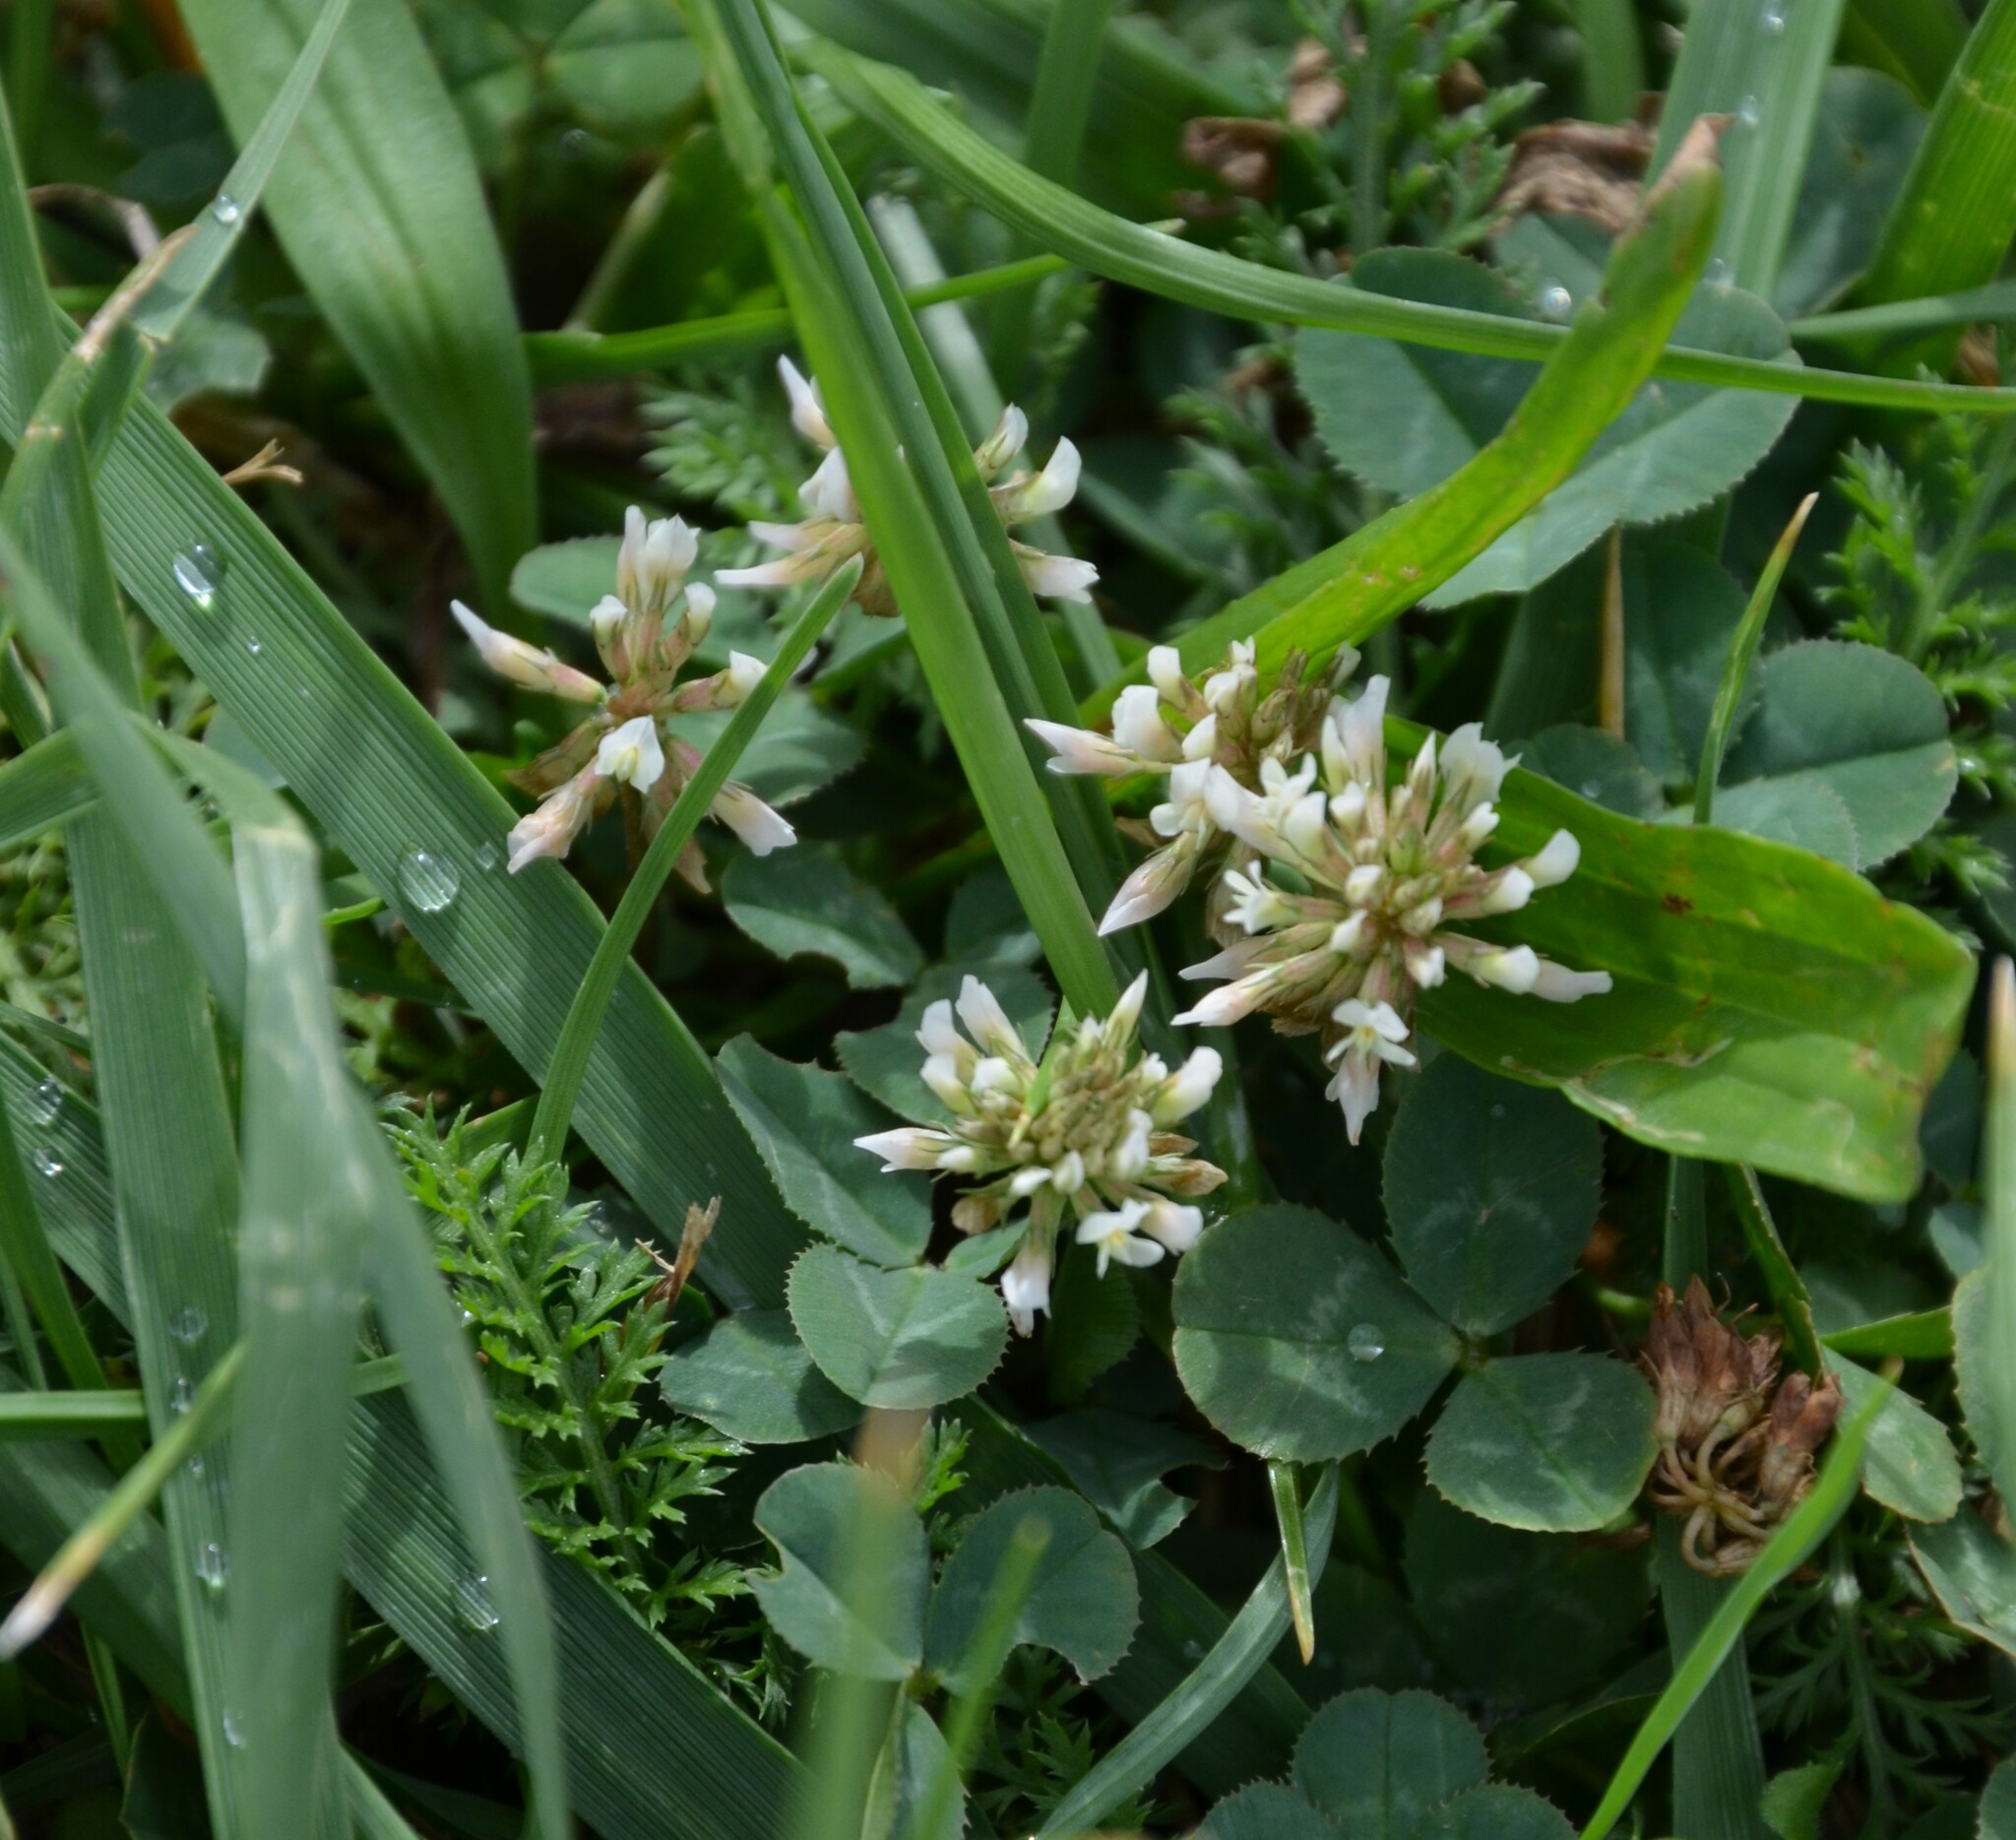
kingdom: Plantae
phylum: Tracheophyta
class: Magnoliopsida
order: Fabales
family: Fabaceae
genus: Trifolium
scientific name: Trifolium repens
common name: White clover
